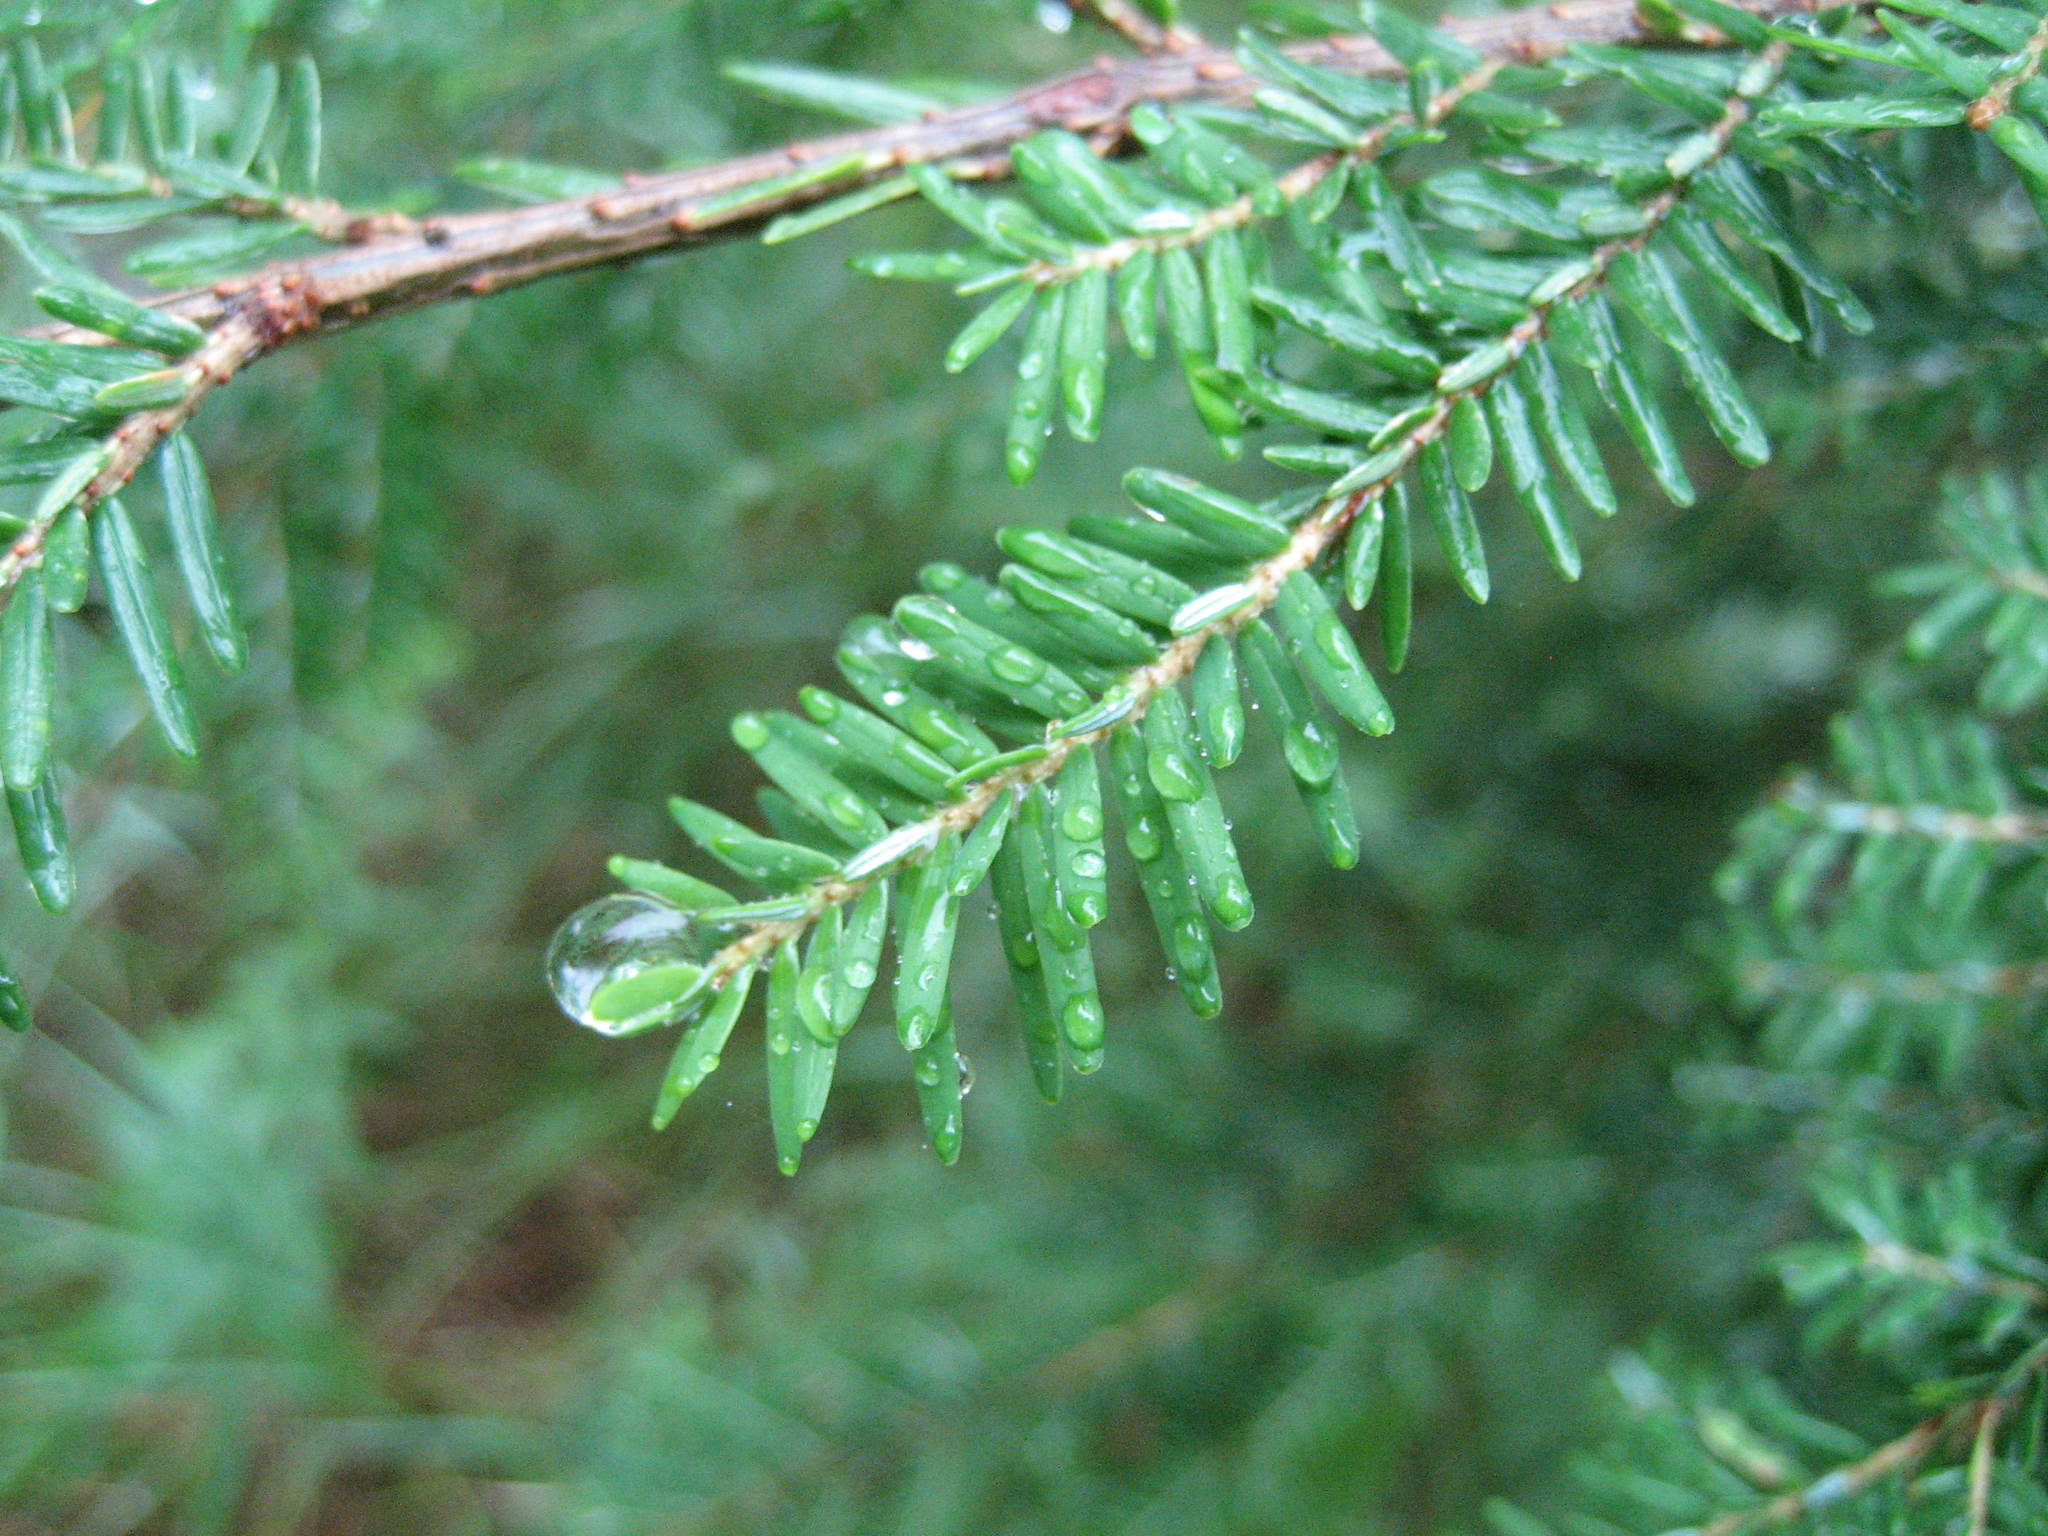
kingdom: Plantae
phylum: Tracheophyta
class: Pinopsida
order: Pinales
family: Pinaceae
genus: Tsuga
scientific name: Tsuga canadensis
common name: Eastern hemlock
